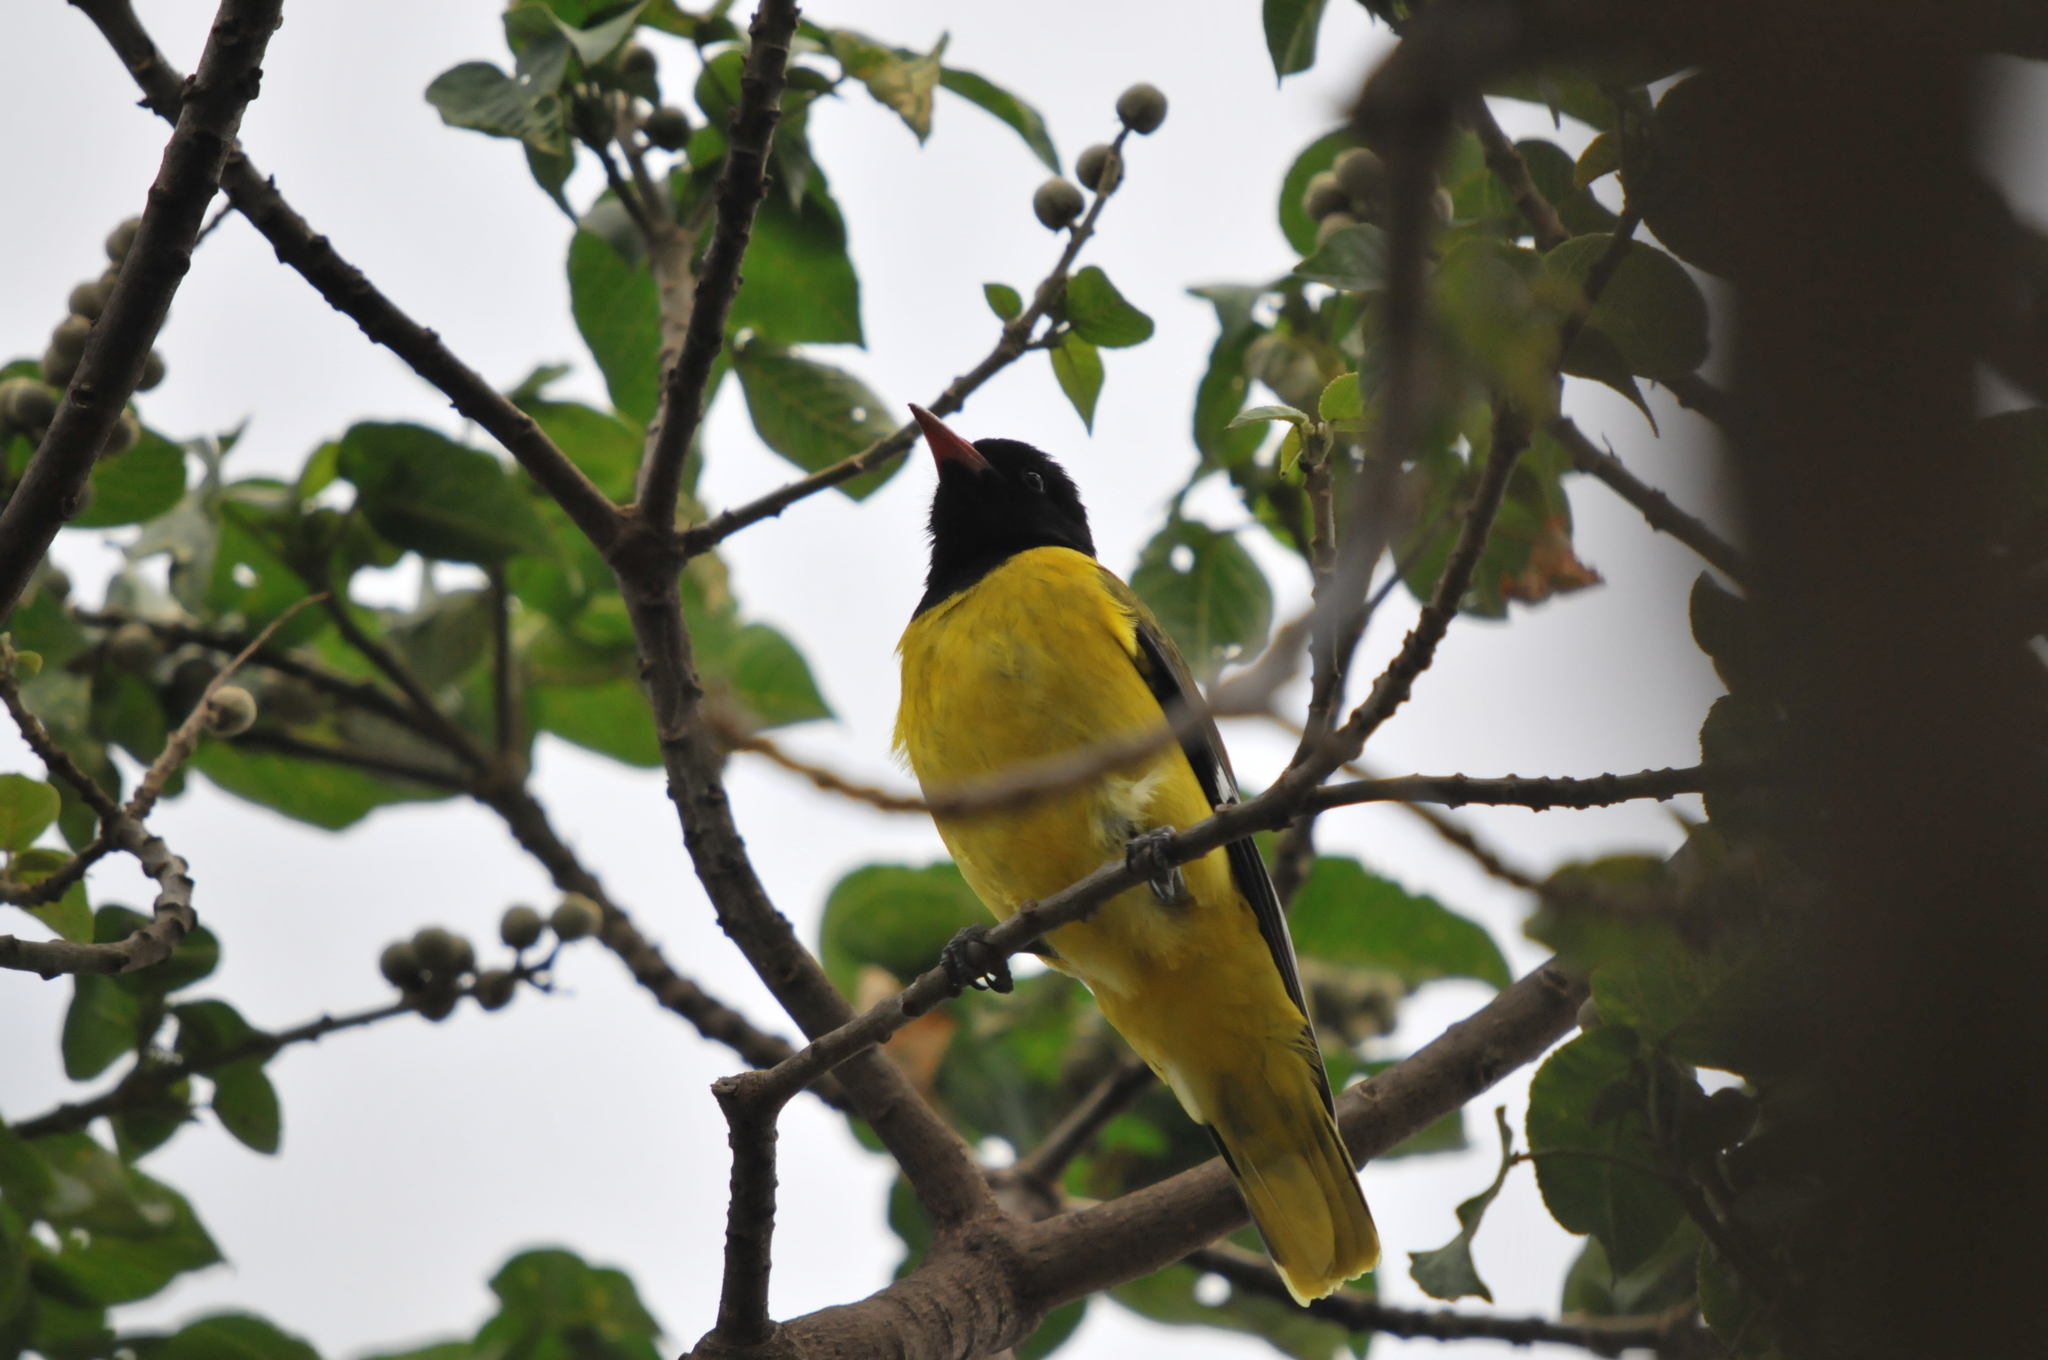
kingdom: Animalia
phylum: Chordata
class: Aves
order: Passeriformes
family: Oriolidae
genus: Oriolus
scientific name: Oriolus larvatus
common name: Black-headed oriole
